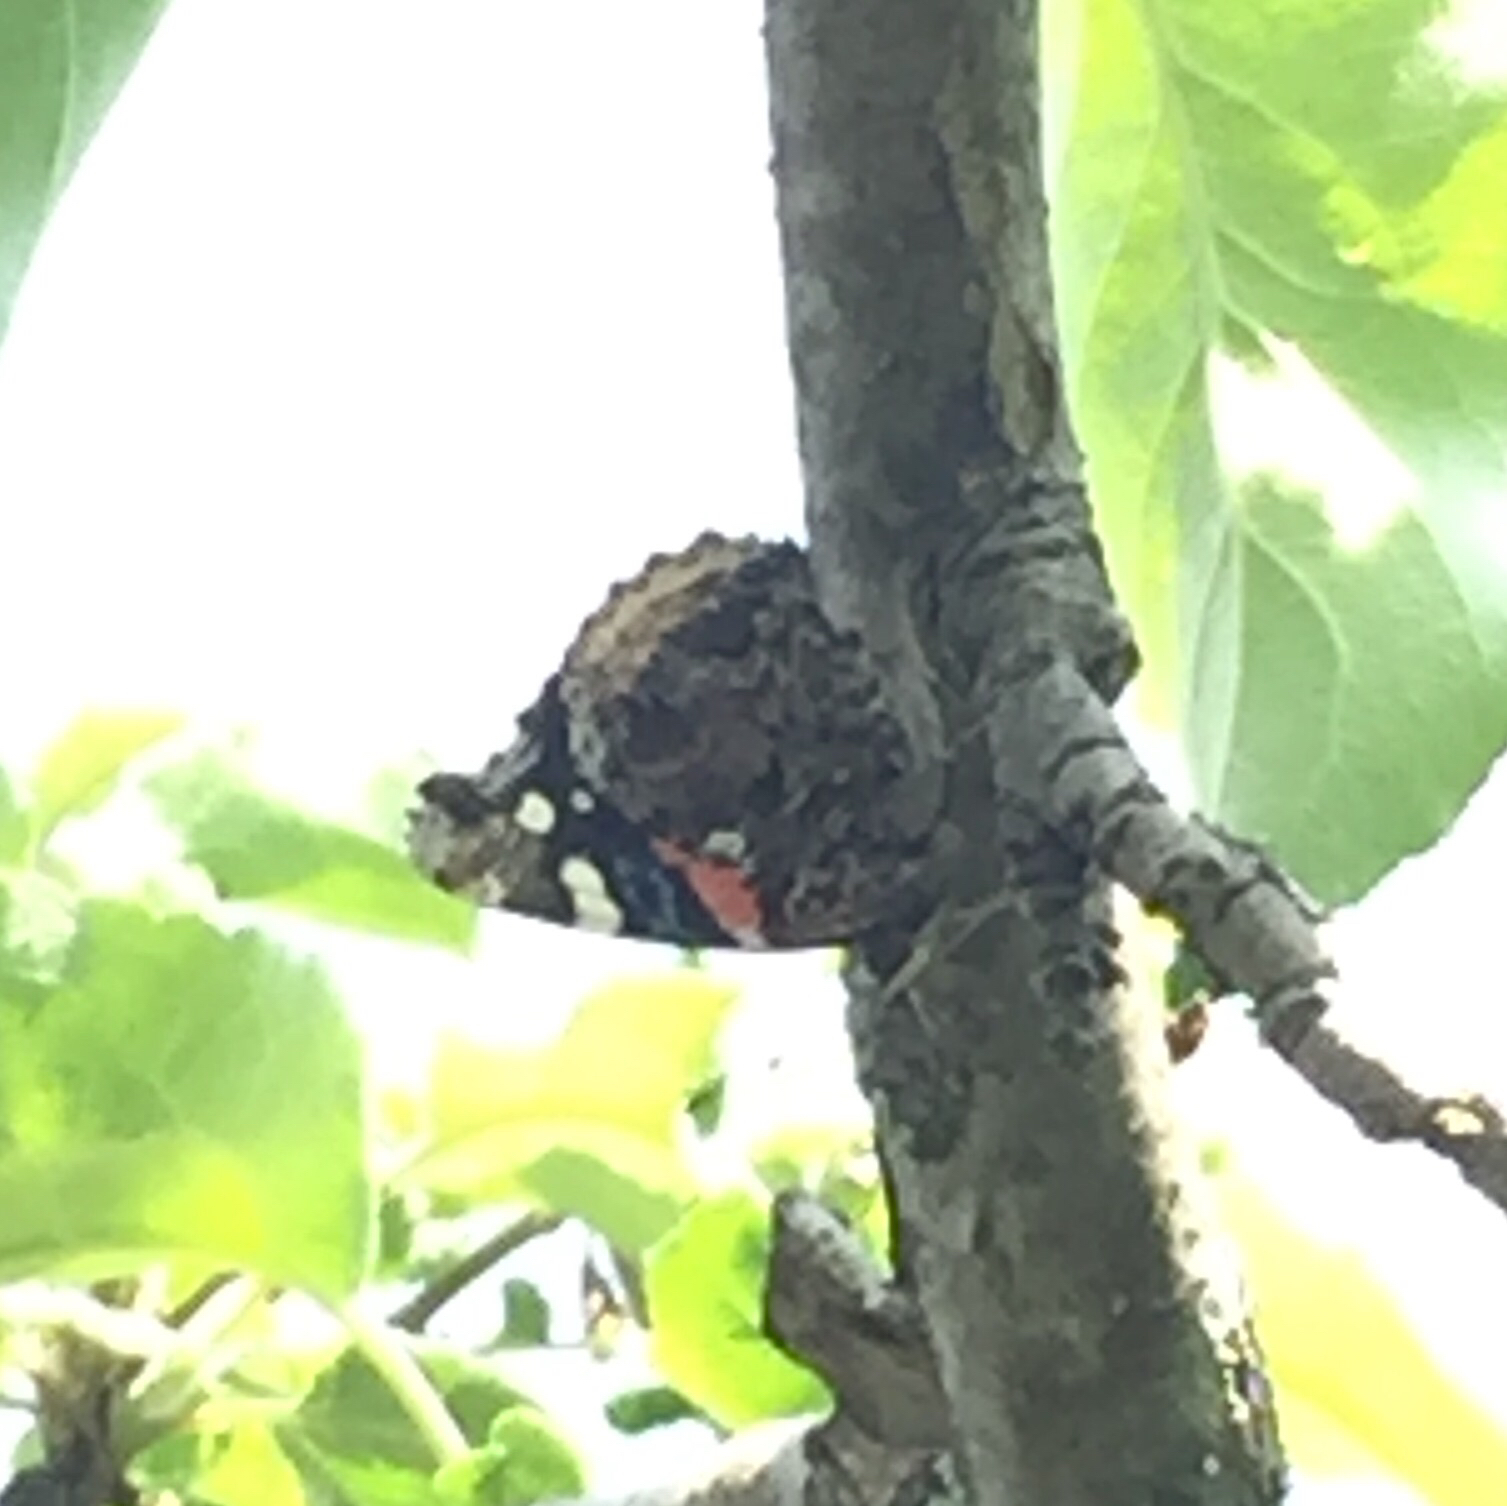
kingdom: Animalia
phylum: Arthropoda
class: Insecta
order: Lepidoptera
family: Nymphalidae
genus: Vanessa
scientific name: Vanessa atalanta
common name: Red admiral
